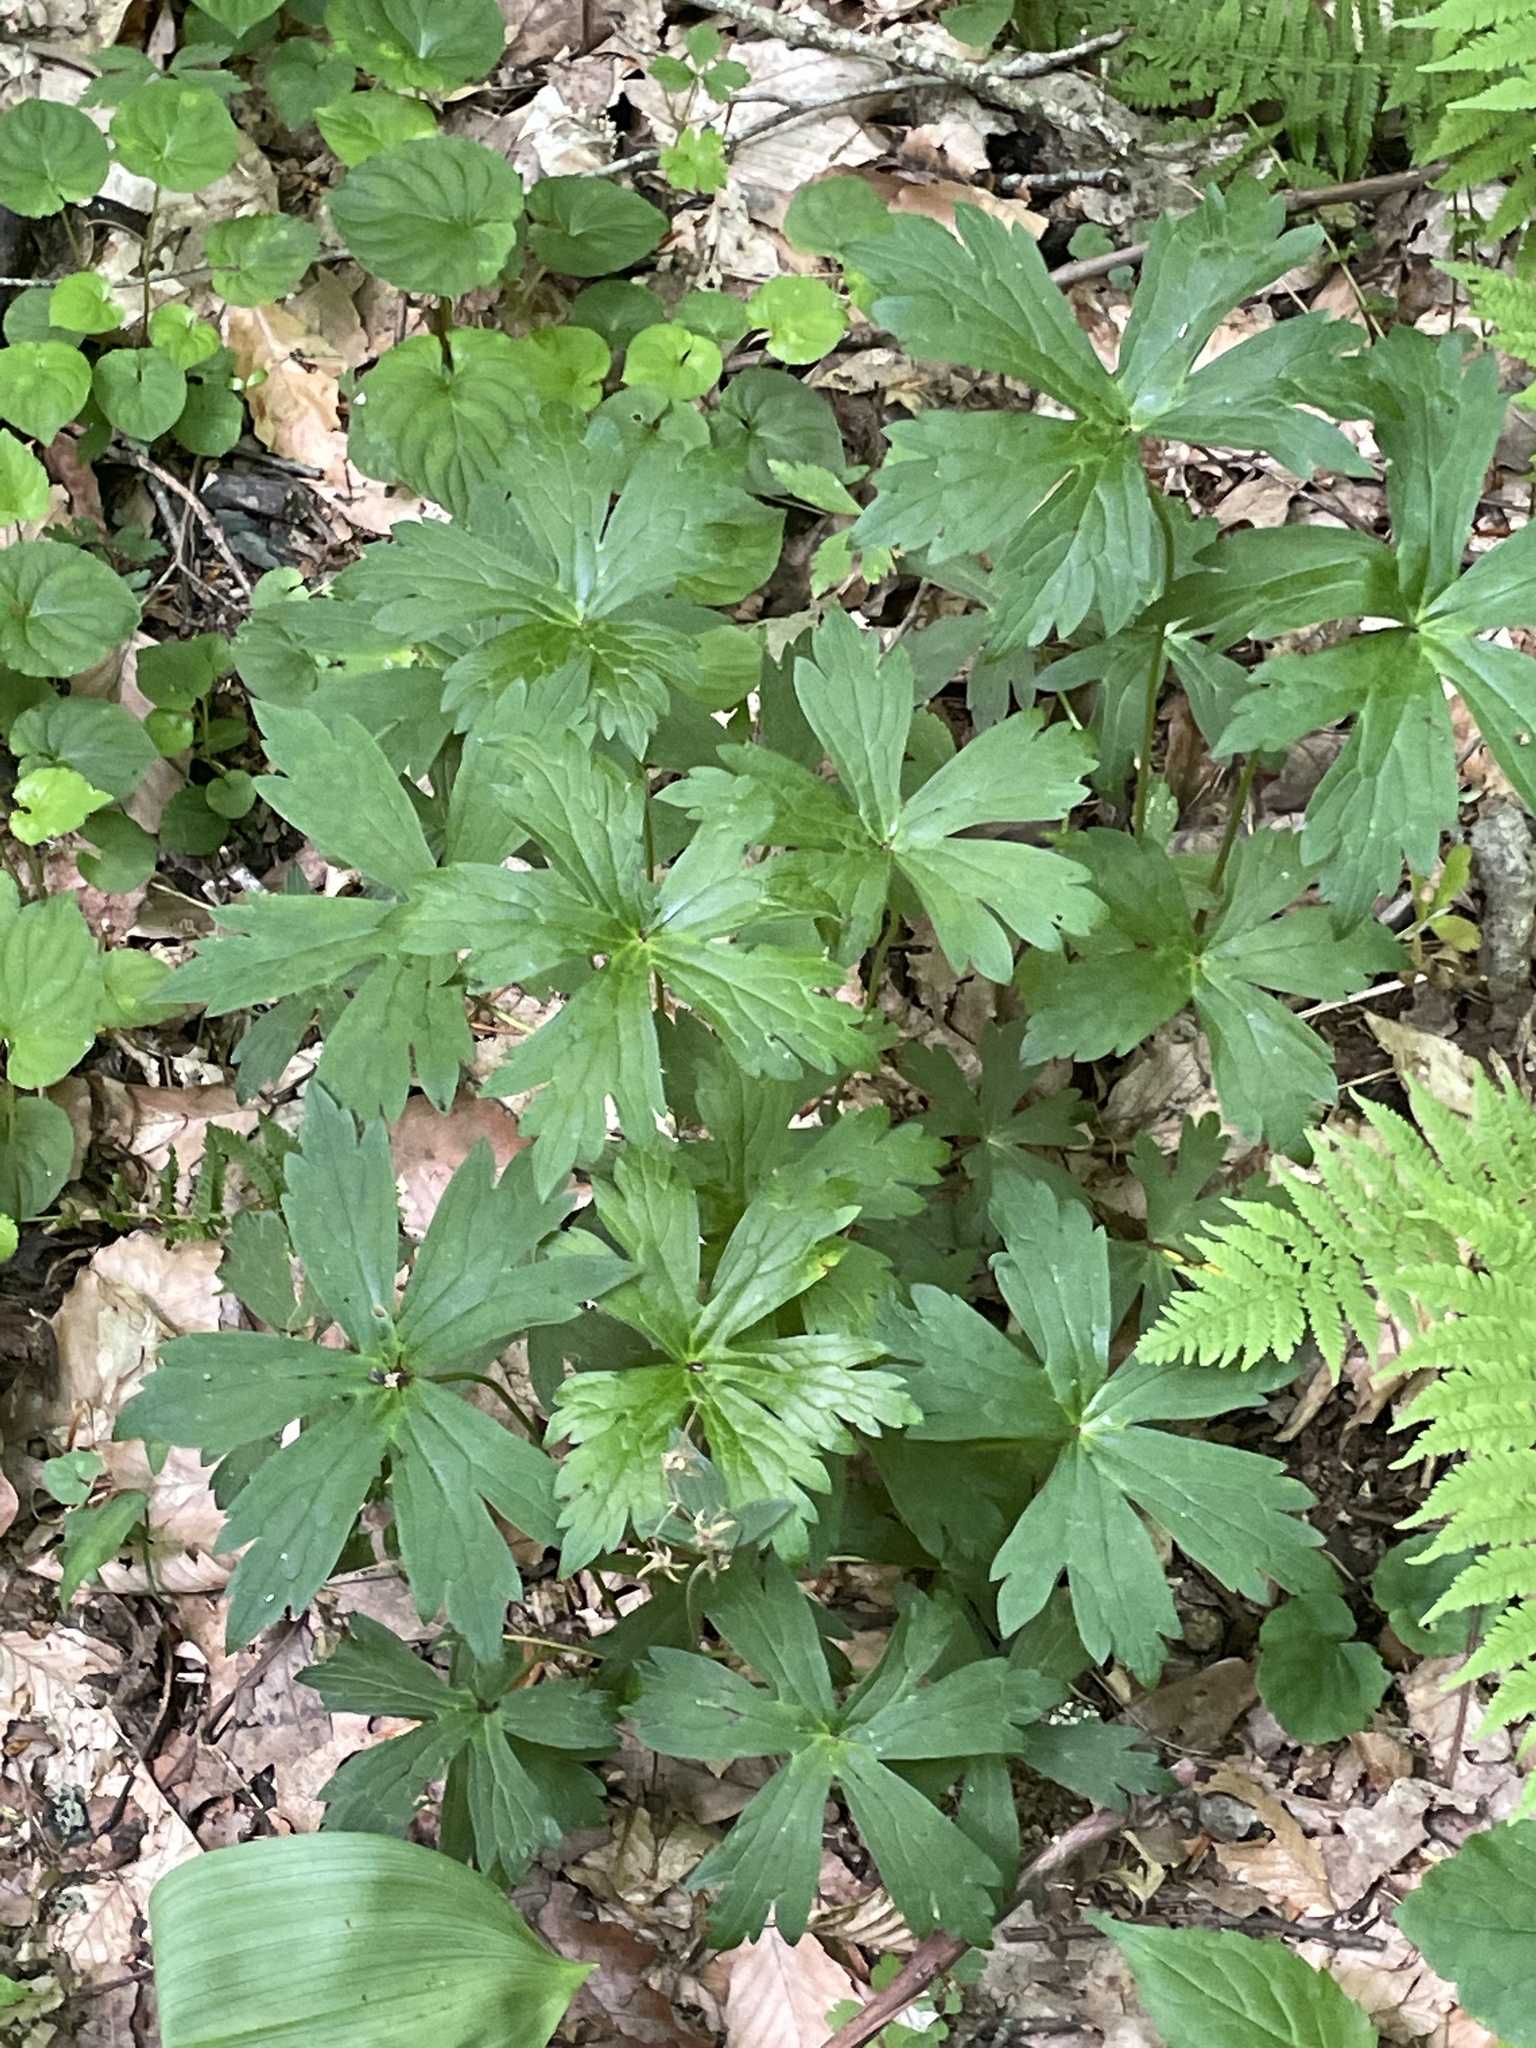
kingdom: Plantae
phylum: Tracheophyta
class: Magnoliopsida
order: Geraniales
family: Geraniaceae
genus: Geranium
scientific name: Geranium maculatum
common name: Spotted geranium
